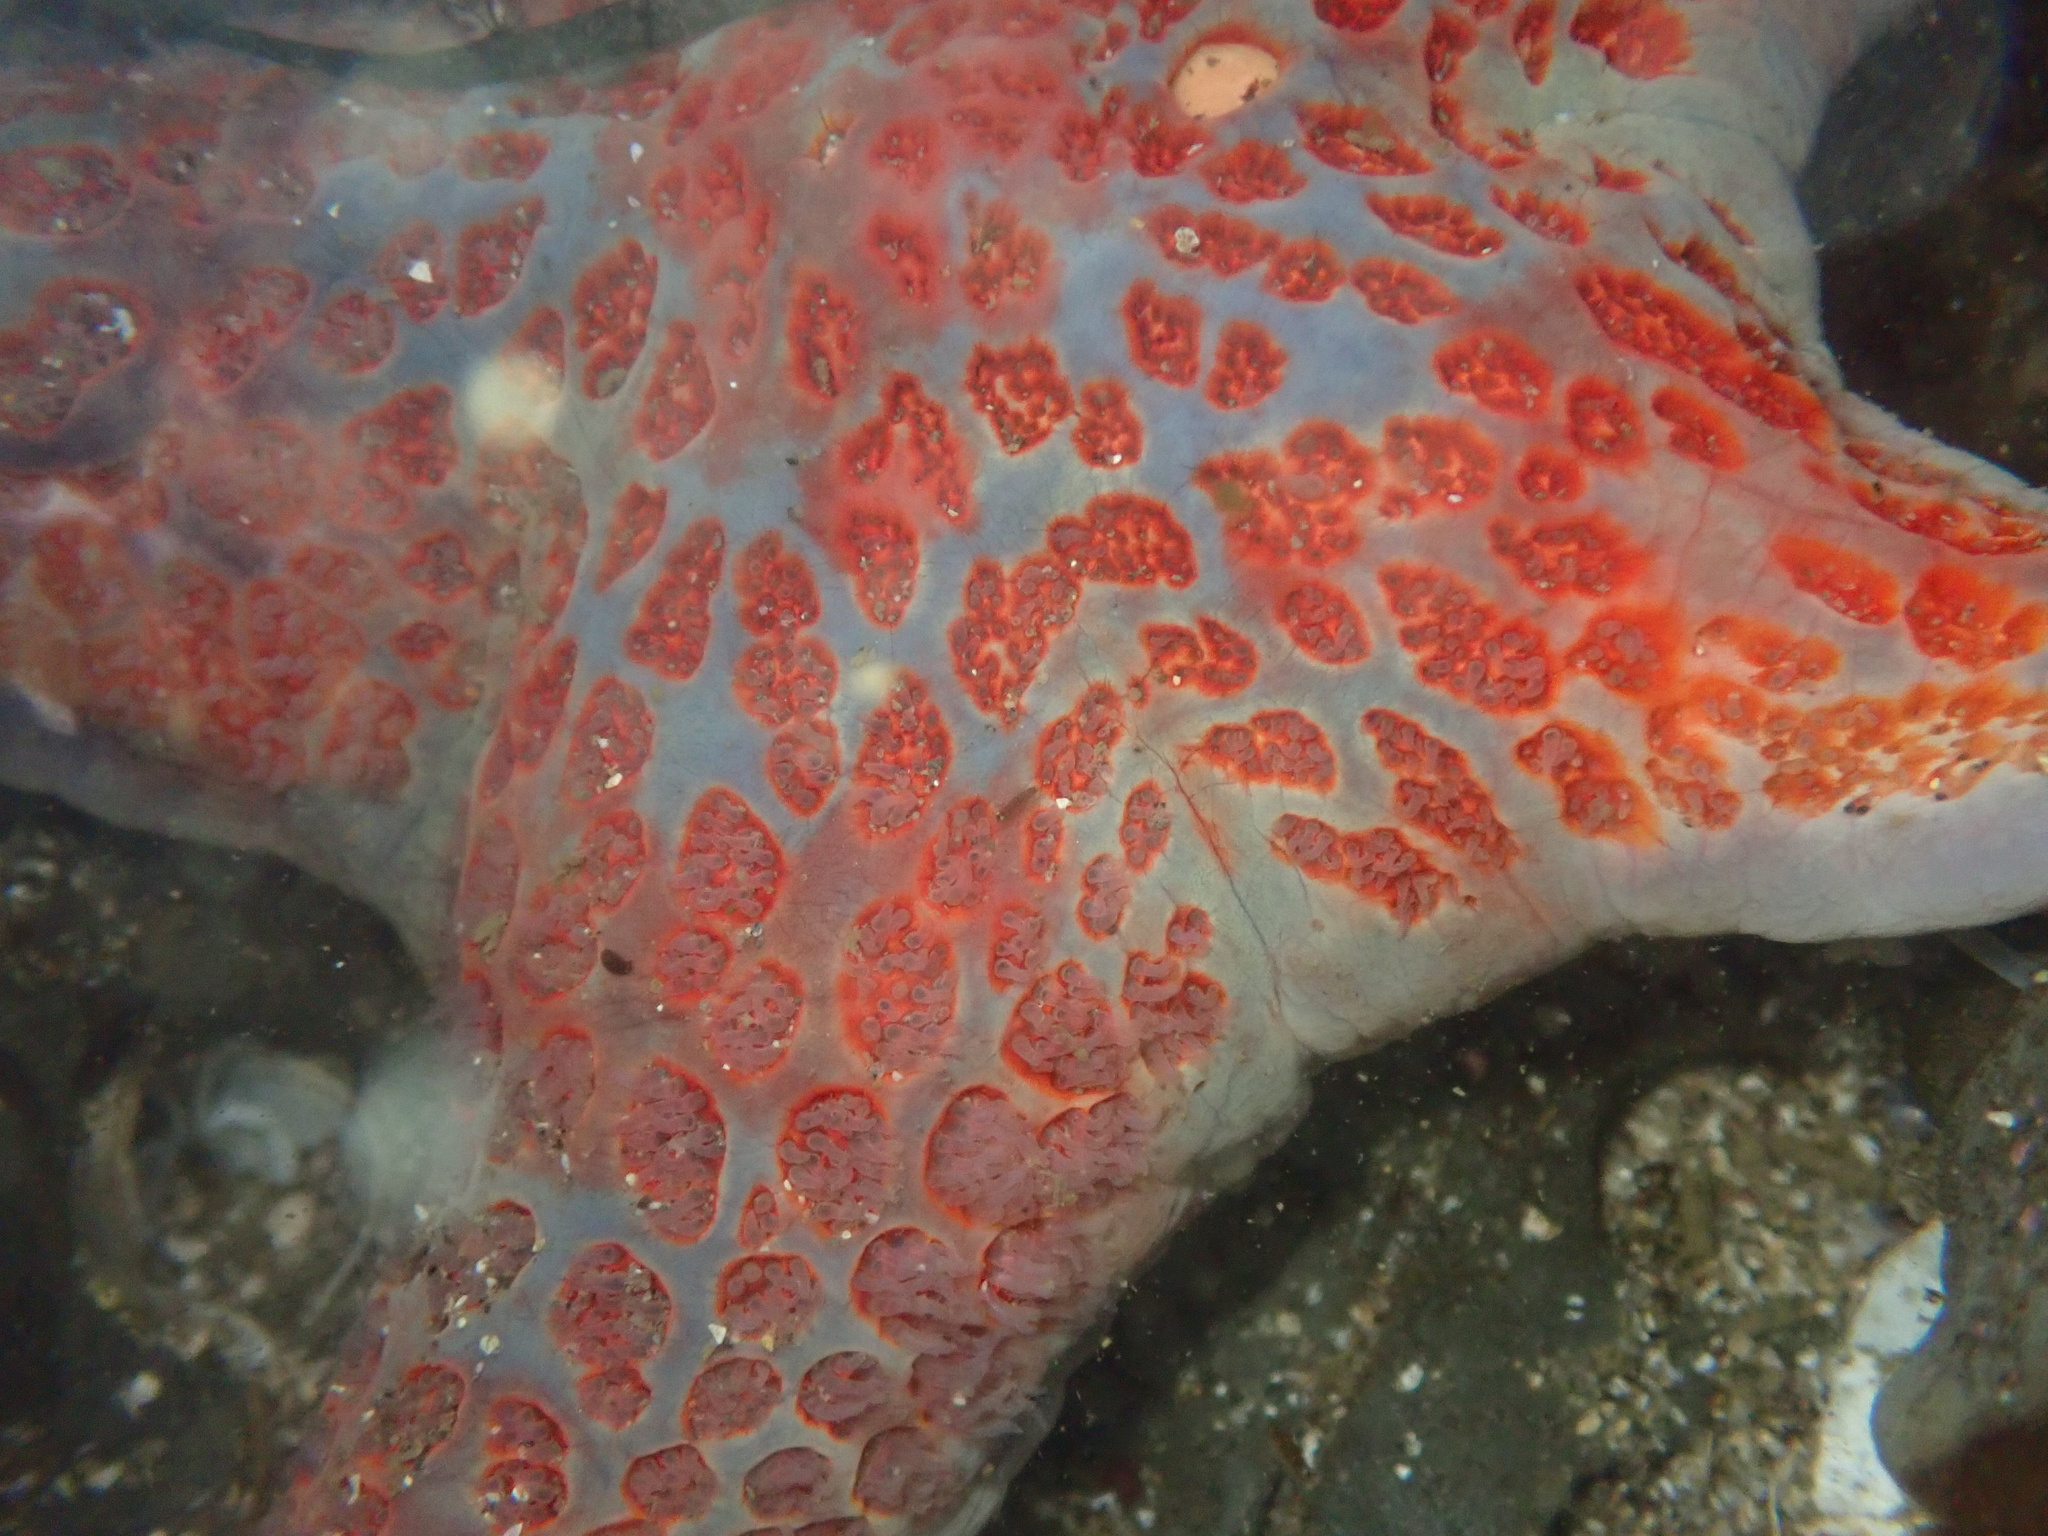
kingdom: Animalia
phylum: Echinodermata
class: Asteroidea
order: Valvatida
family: Asteropseidae
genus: Dermasterias
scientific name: Dermasterias imbricata
